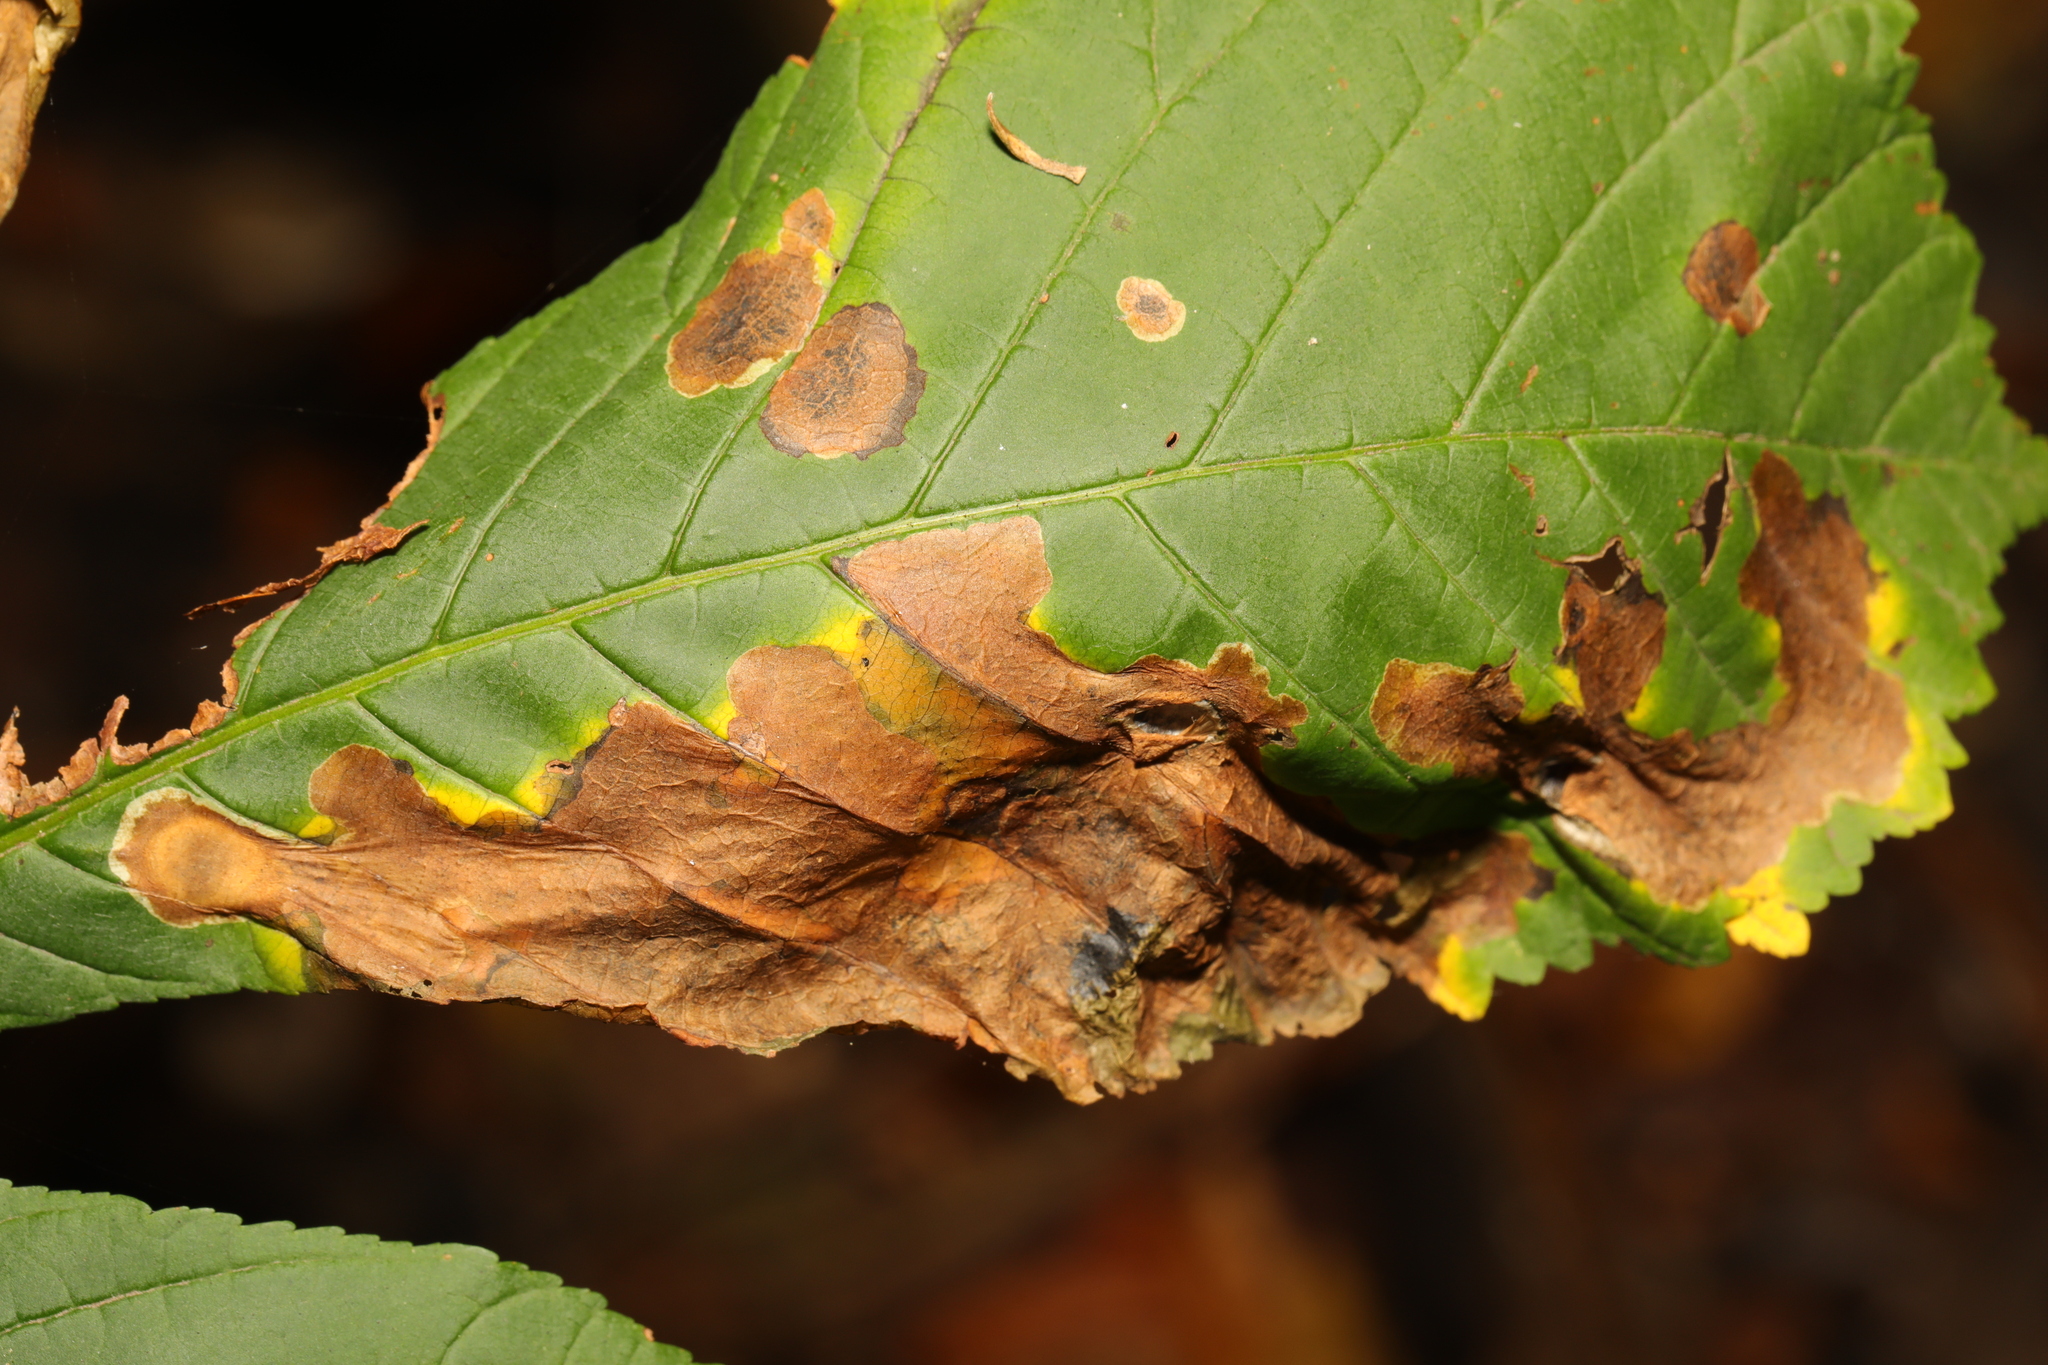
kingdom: Fungi
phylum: Ascomycota
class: Dothideomycetes
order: Botryosphaeriales
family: Phyllostictaceae
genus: Phyllosticta
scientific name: Phyllosticta paviae
